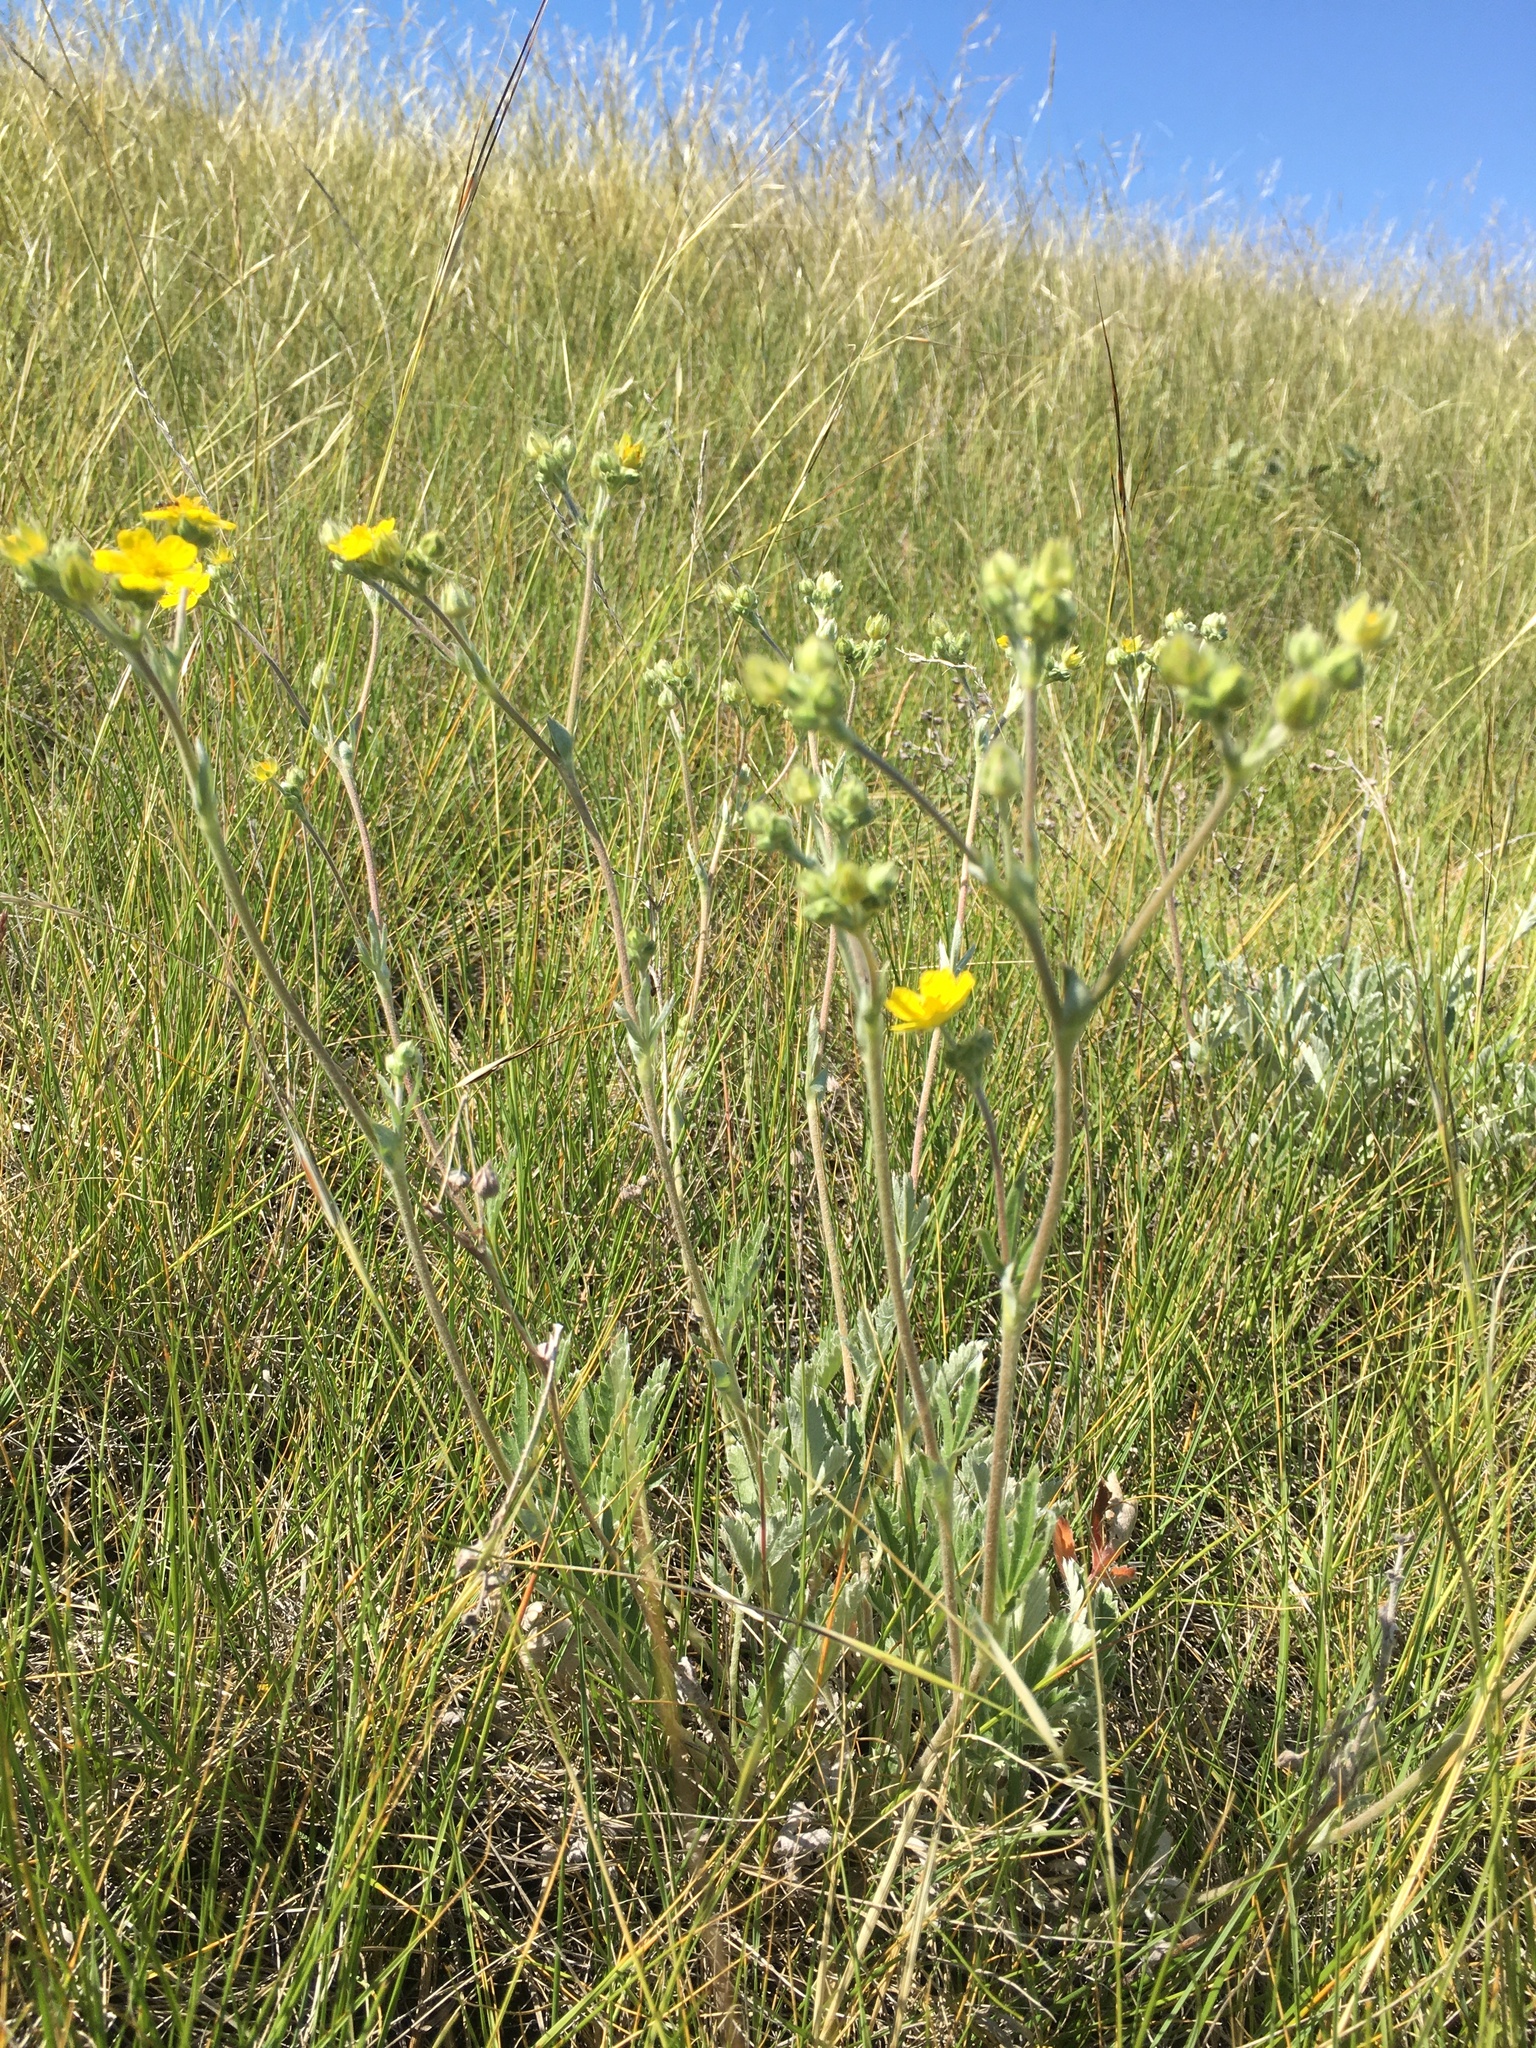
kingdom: Plantae
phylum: Tracheophyta
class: Magnoliopsida
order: Rosales
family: Rosaceae
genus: Potentilla
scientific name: Potentilla hippiana
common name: Woolly cinquefoil
